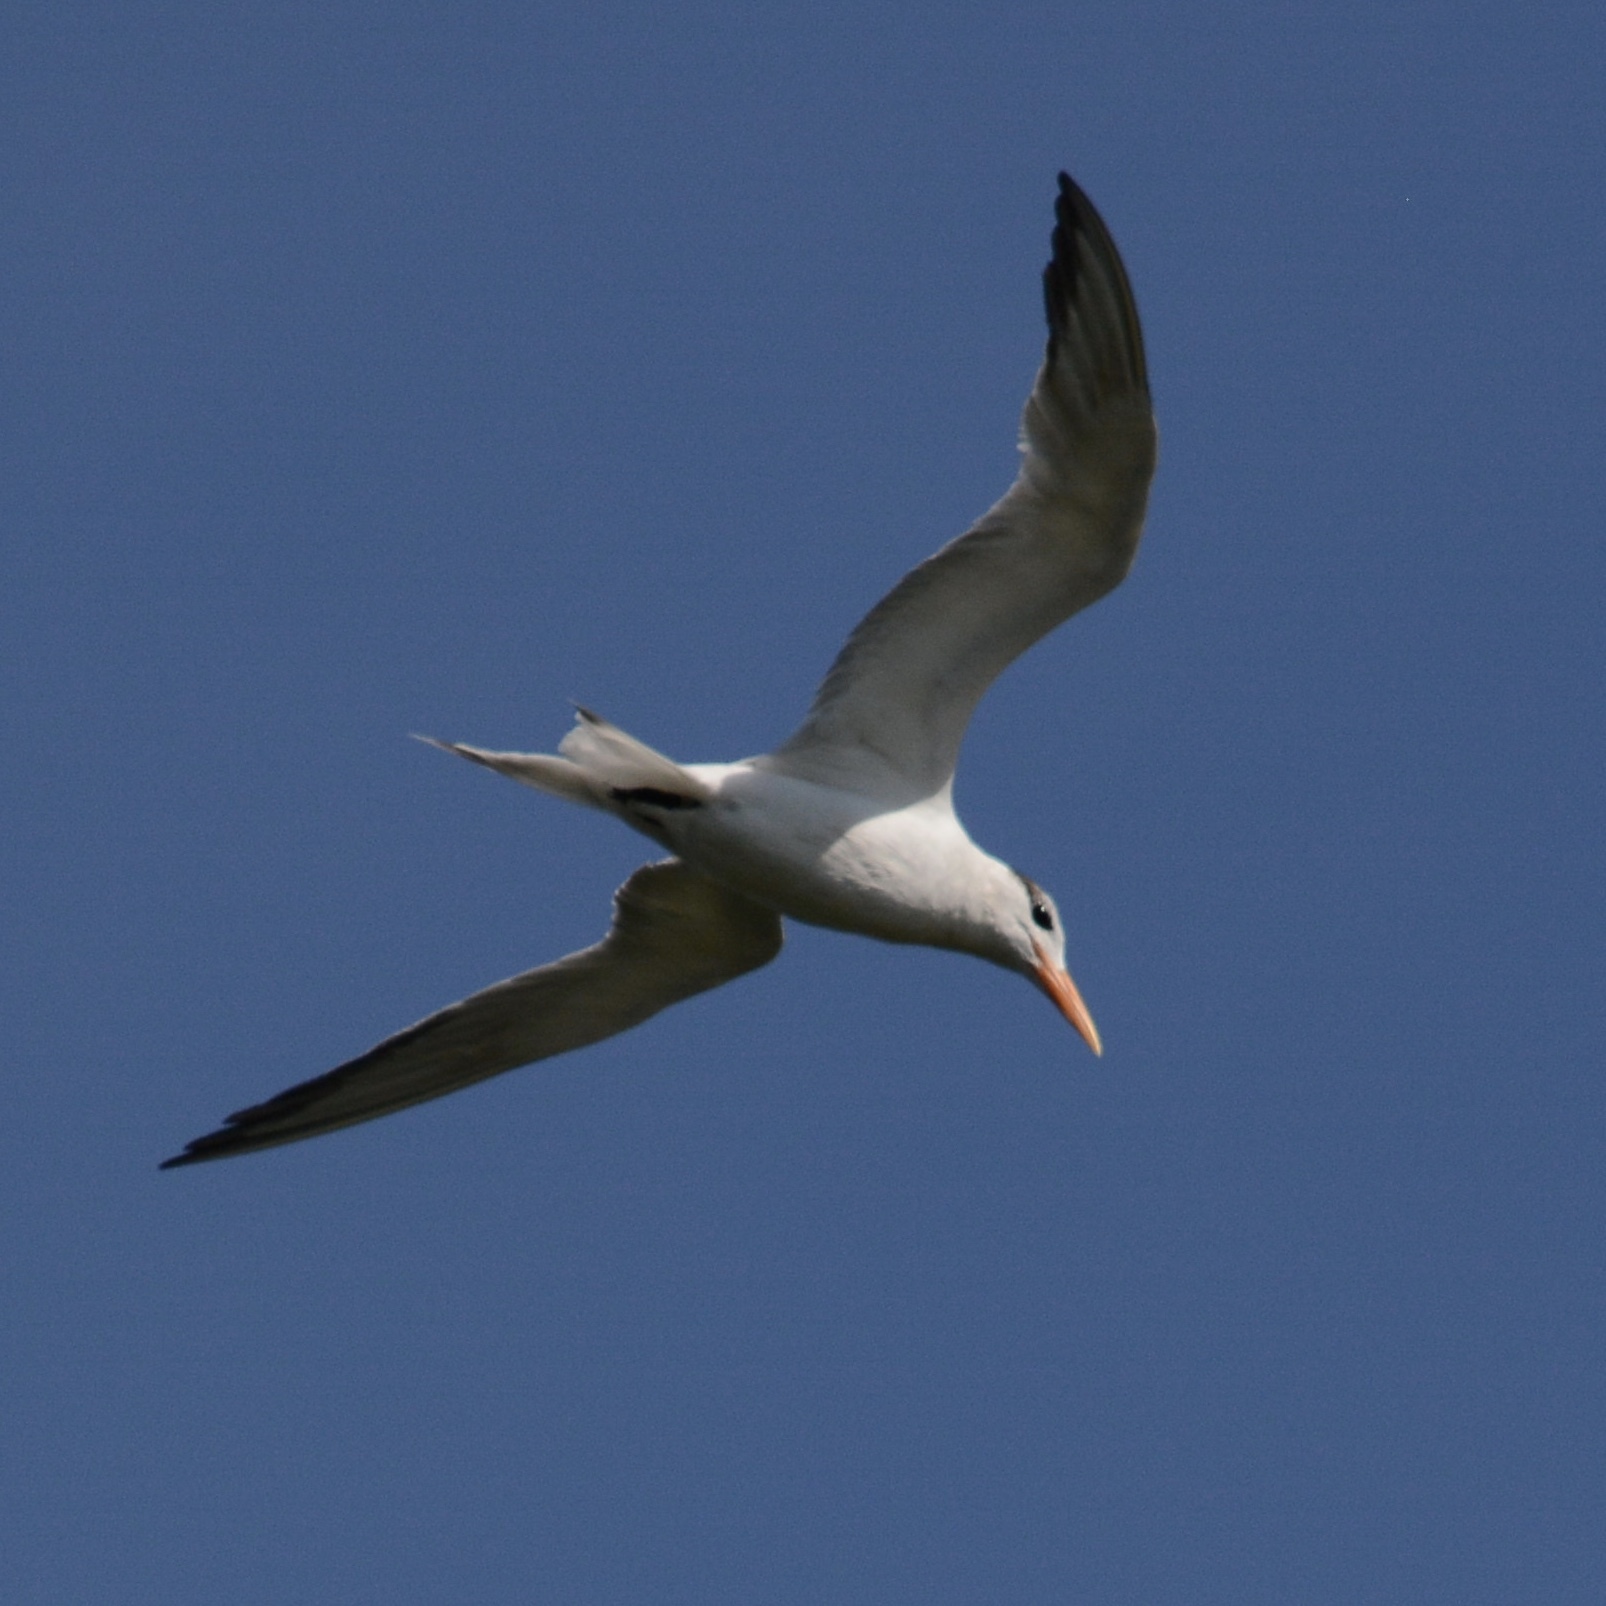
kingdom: Animalia
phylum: Chordata
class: Aves
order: Charadriiformes
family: Laridae
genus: Thalasseus
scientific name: Thalasseus maximus
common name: Royal tern
